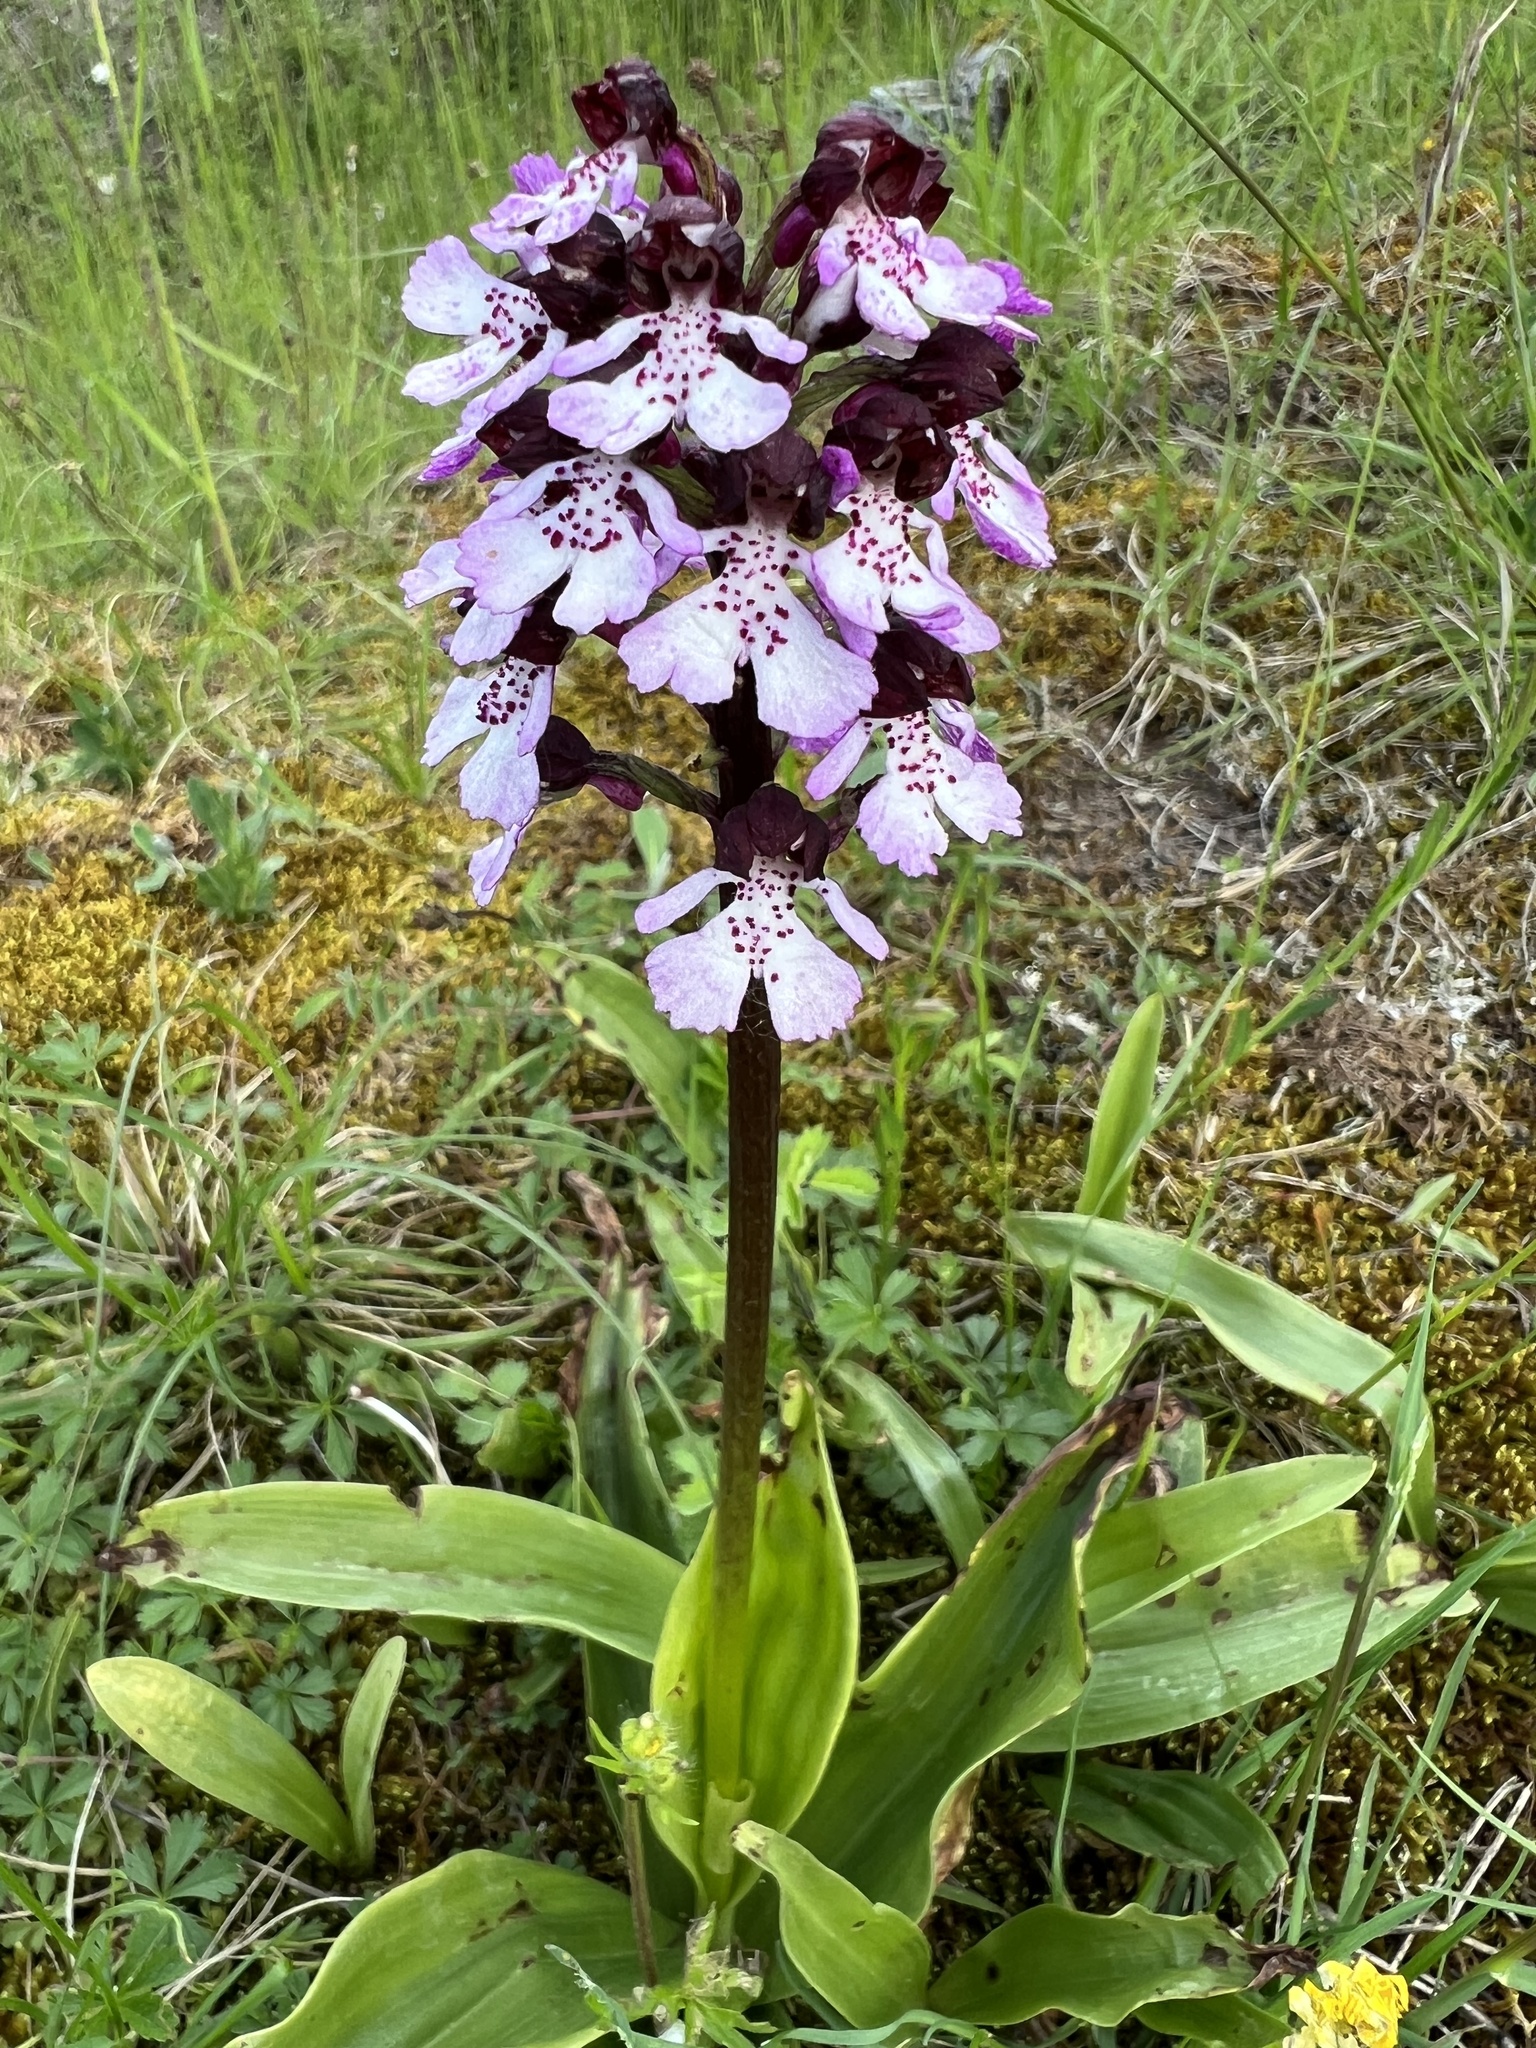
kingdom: Plantae
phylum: Tracheophyta
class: Liliopsida
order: Asparagales
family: Orchidaceae
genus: Orchis
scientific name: Orchis purpurea
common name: Lady orchid
